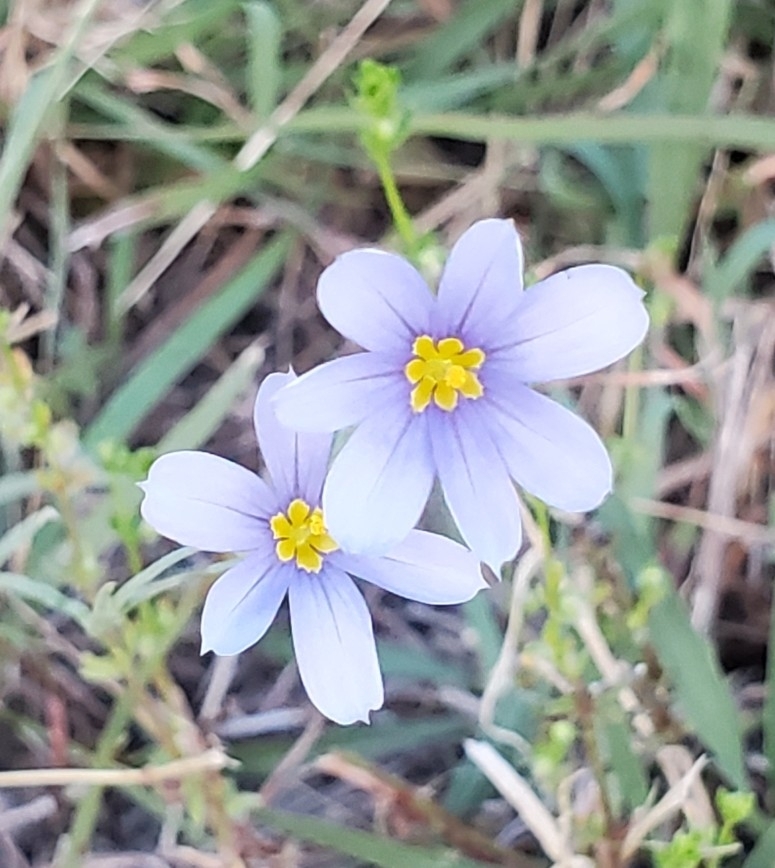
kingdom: Plantae
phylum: Tracheophyta
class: Liliopsida
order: Asparagales
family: Iridaceae
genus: Sisyrinchium
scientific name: Sisyrinchium ensigerum
